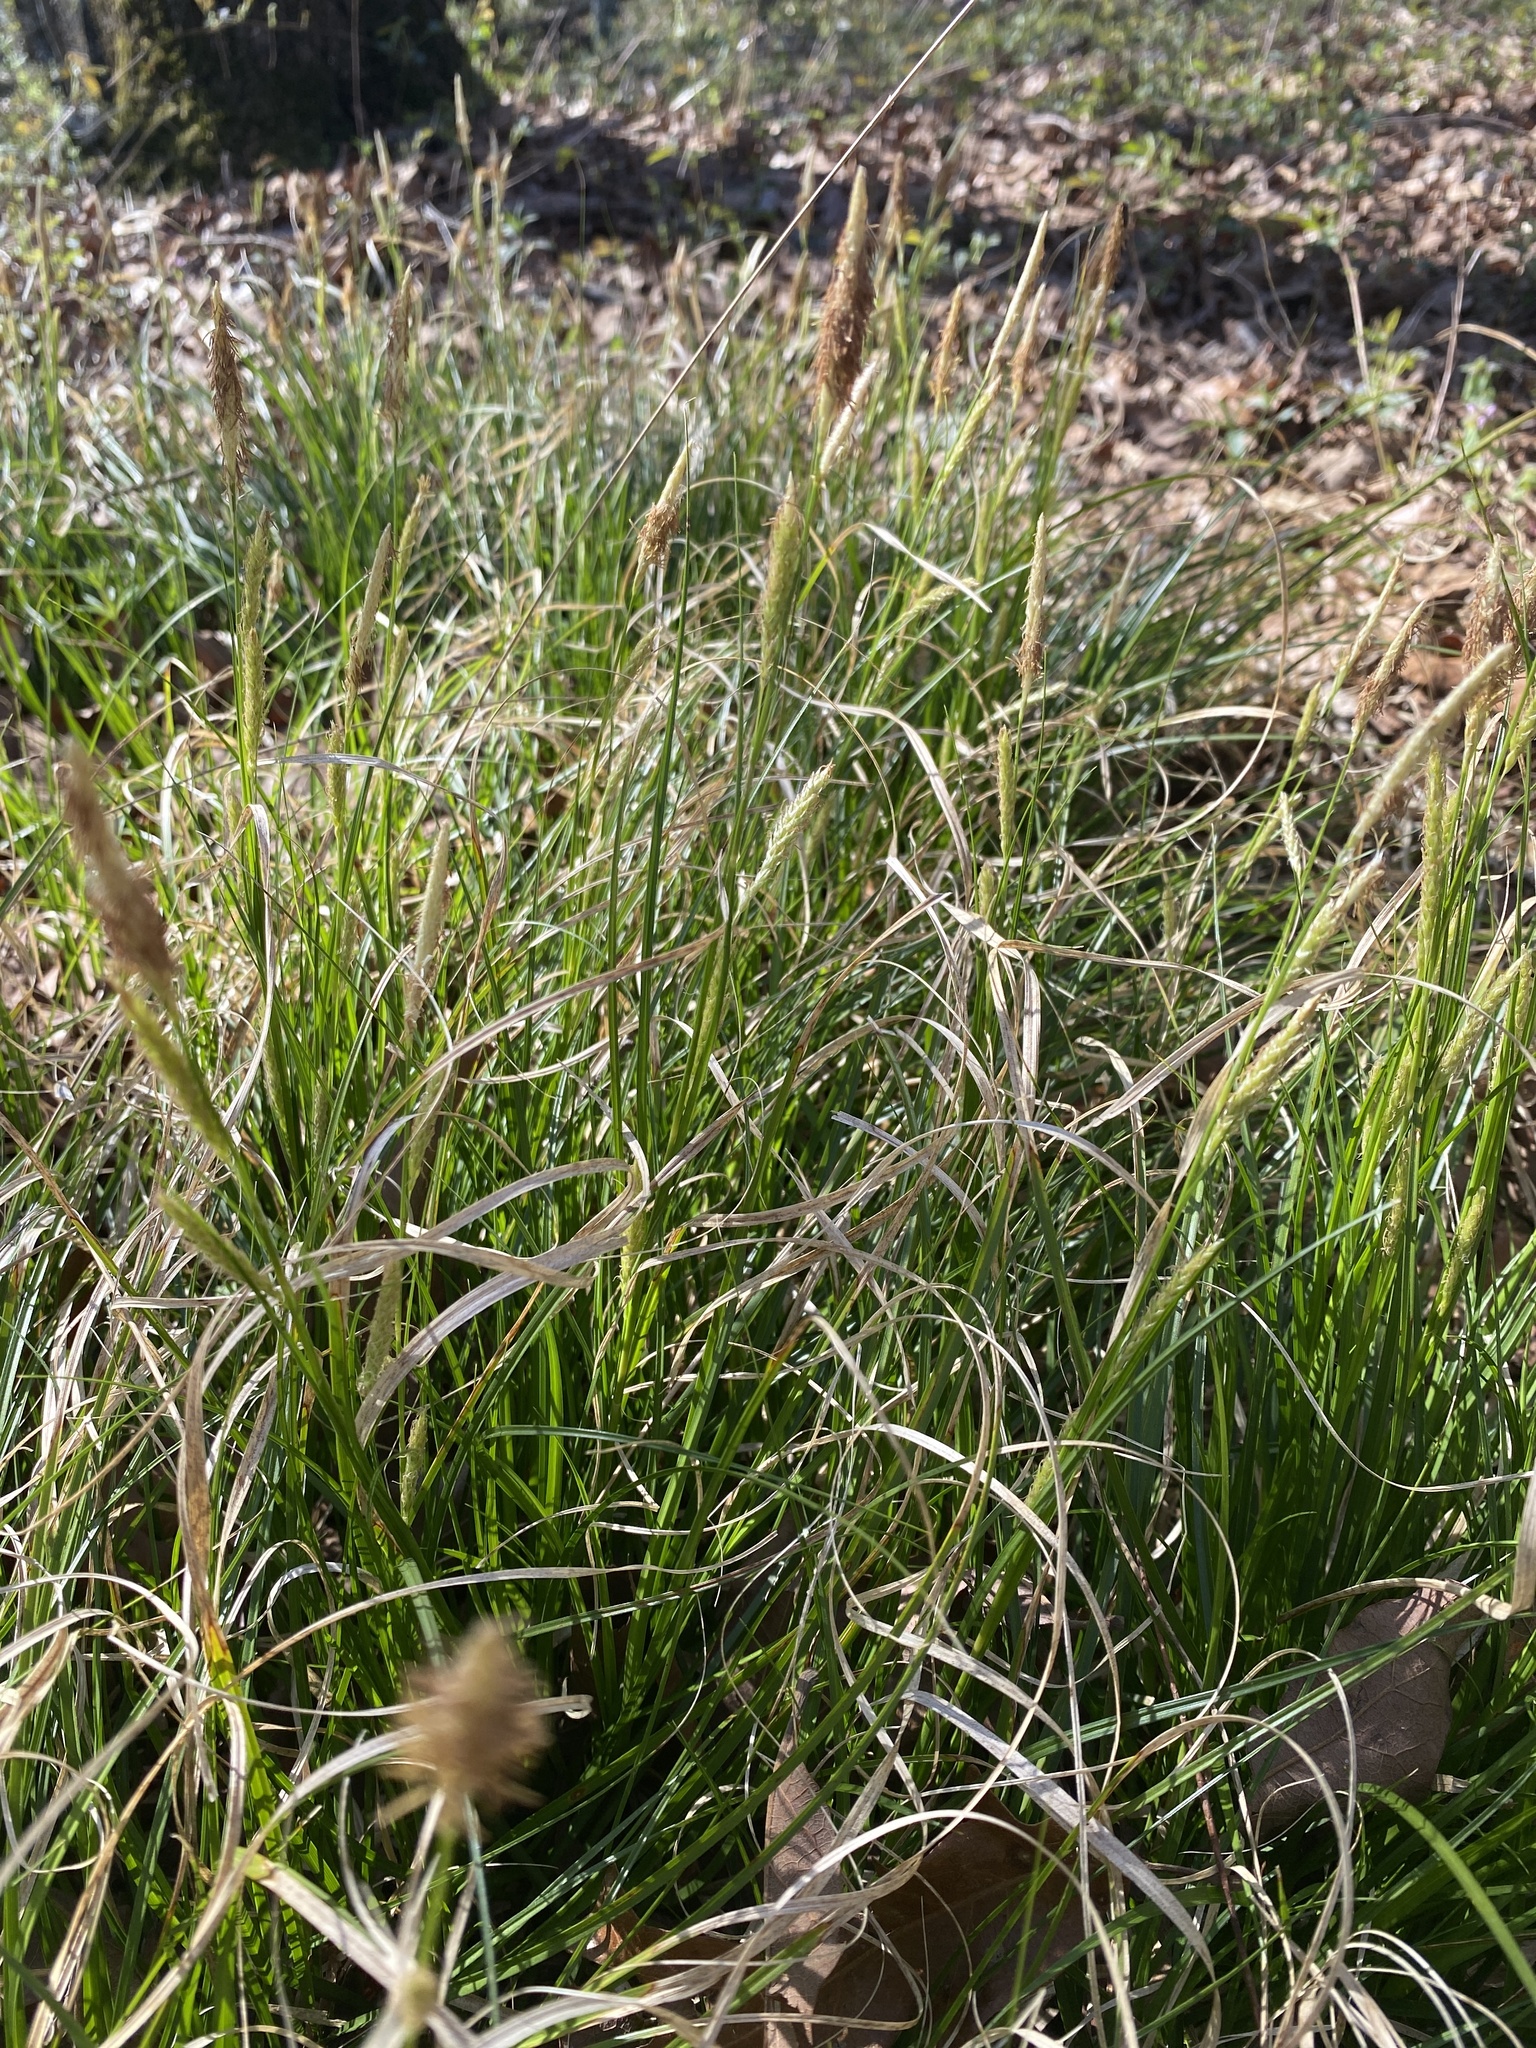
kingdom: Plantae
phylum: Tracheophyta
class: Liliopsida
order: Poales
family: Cyperaceae
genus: Carex
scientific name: Carex cherokeensis
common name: Cherokee sedge
